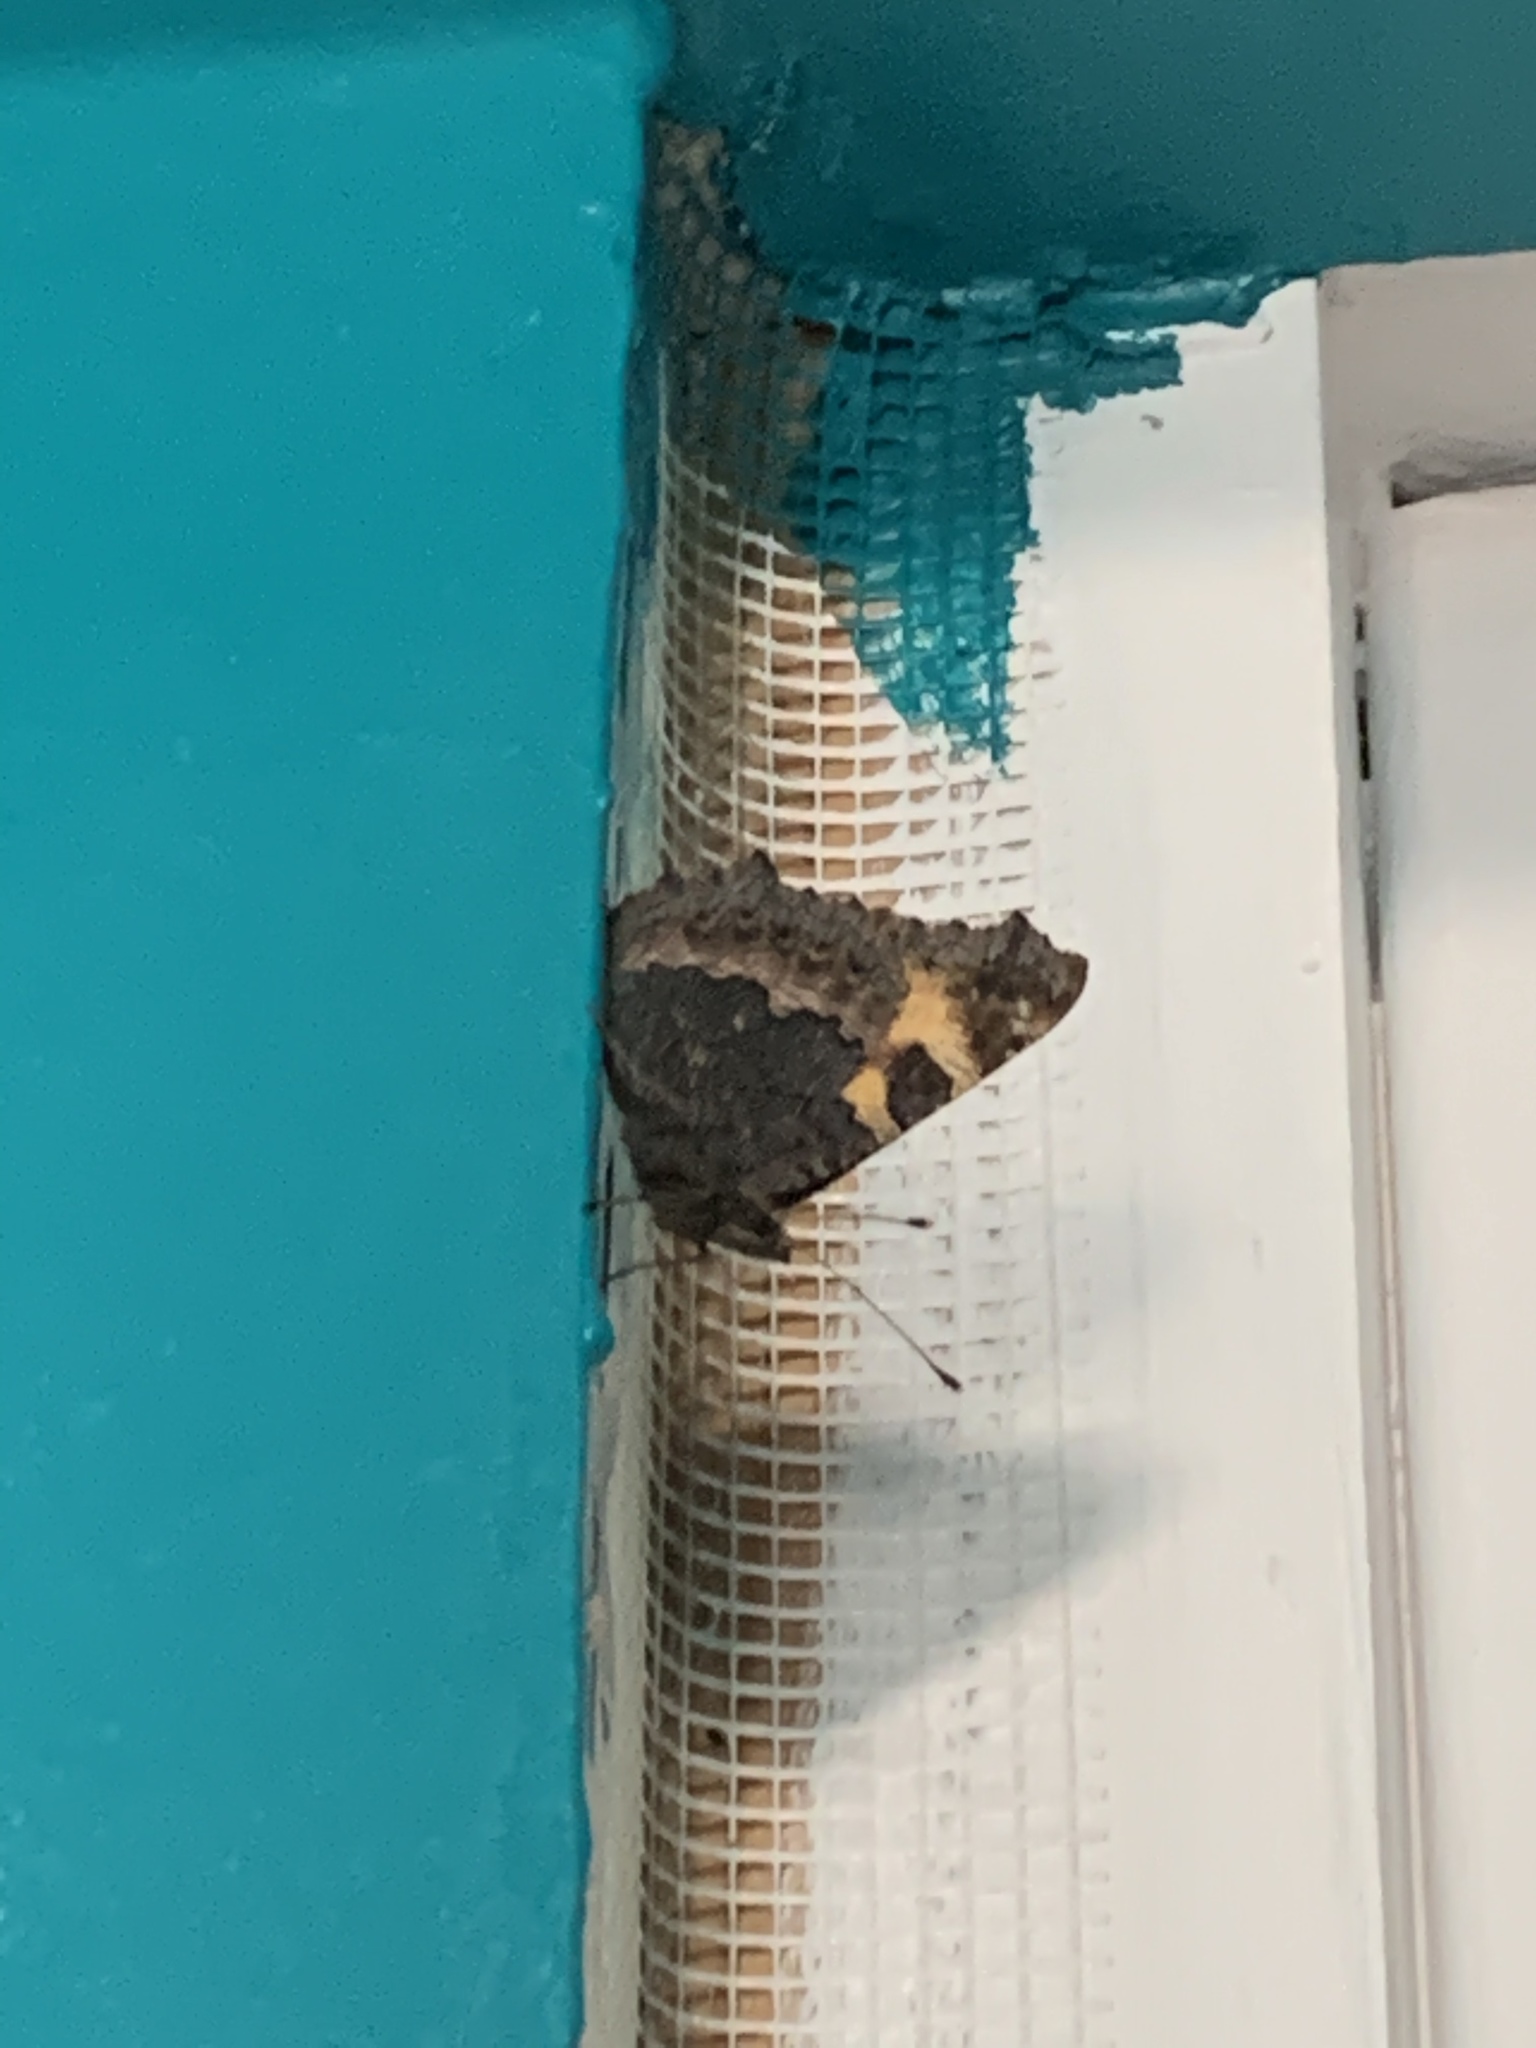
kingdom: Animalia
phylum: Arthropoda
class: Insecta
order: Lepidoptera
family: Nymphalidae
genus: Aglais
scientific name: Aglais urticae
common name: Small tortoiseshell
